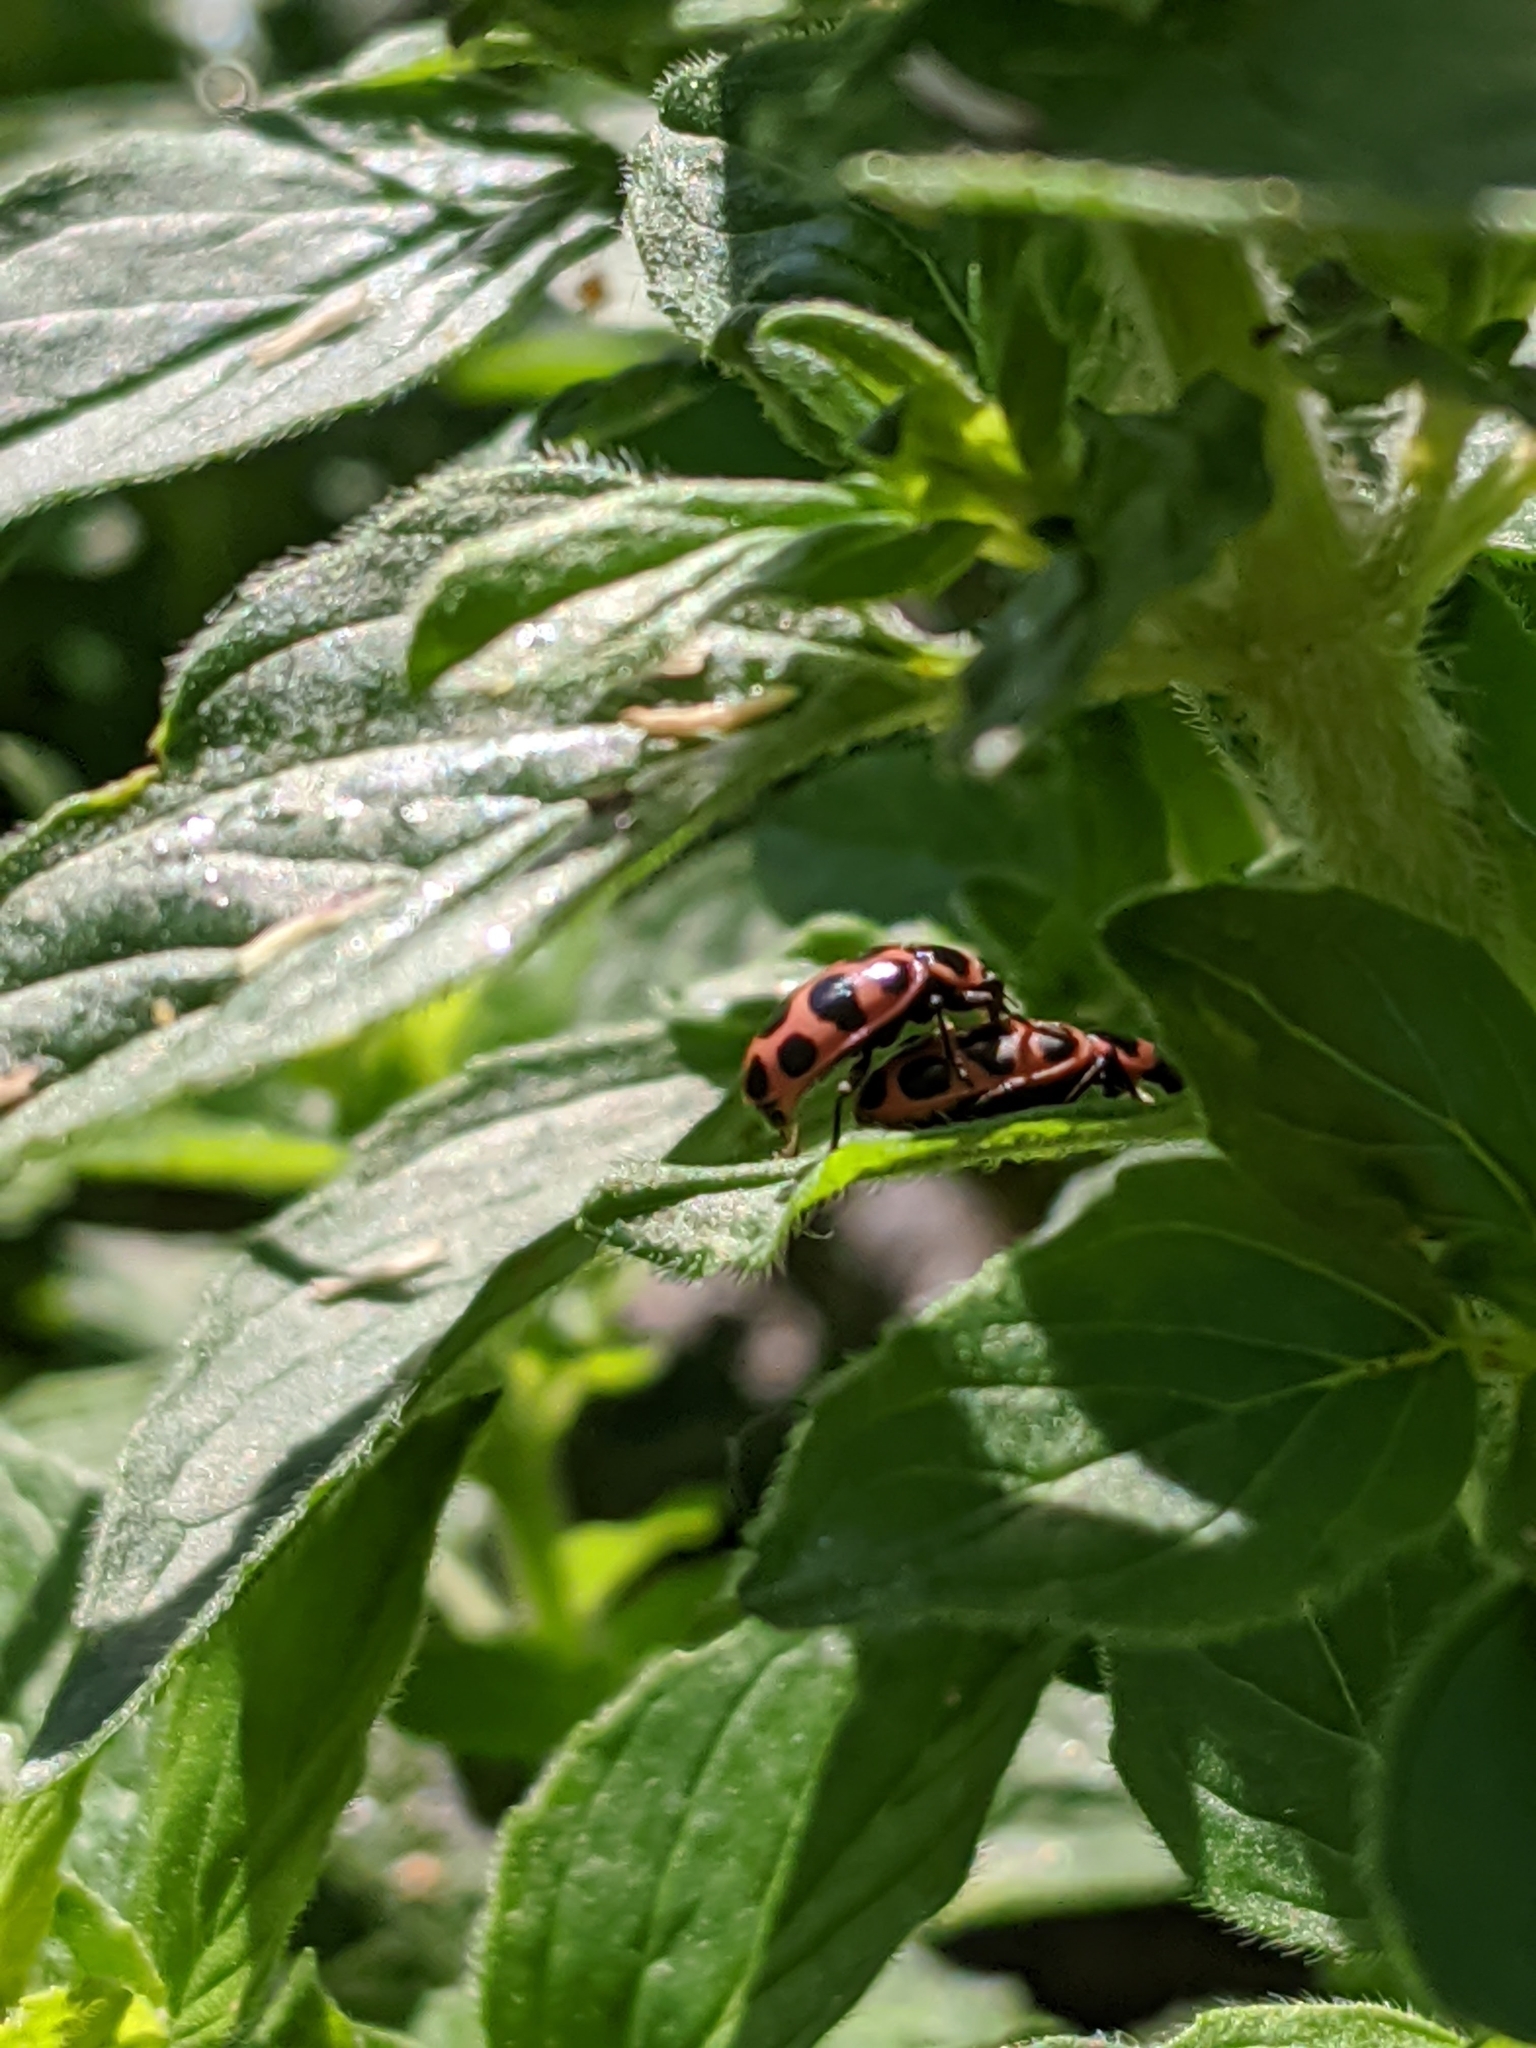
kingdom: Animalia
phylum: Arthropoda
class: Insecta
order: Coleoptera
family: Coccinellidae
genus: Coleomegilla
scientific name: Coleomegilla maculata
